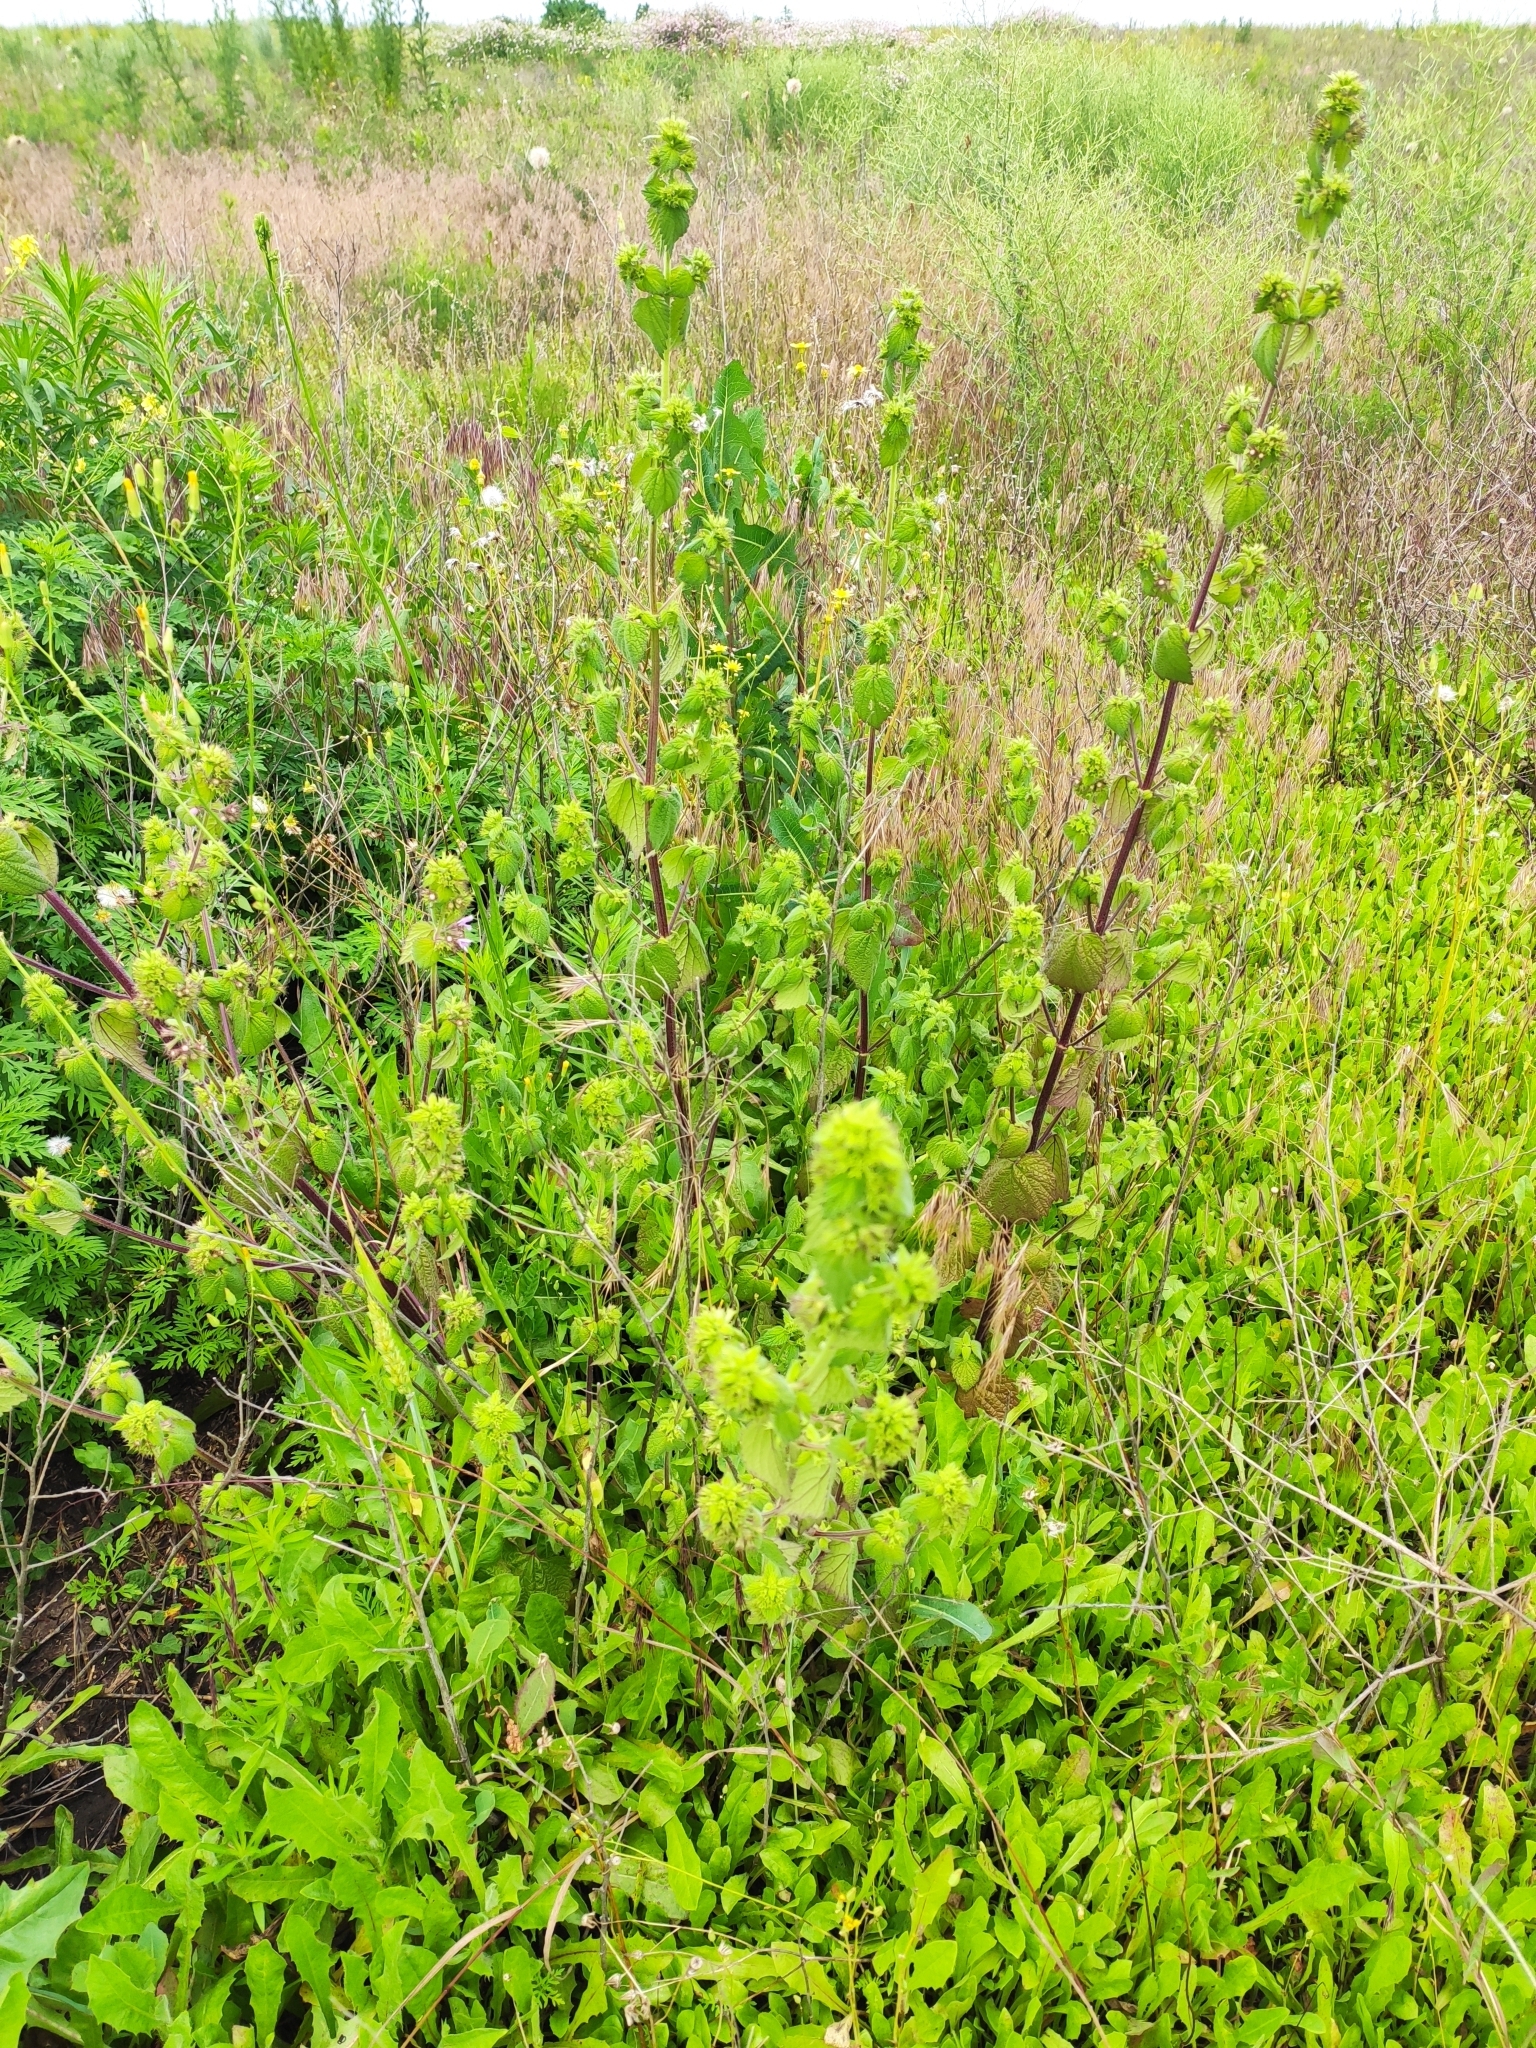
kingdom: Plantae
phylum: Tracheophyta
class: Magnoliopsida
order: Lamiales
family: Lamiaceae
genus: Ballota
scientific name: Ballota nigra
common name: Black horehound
